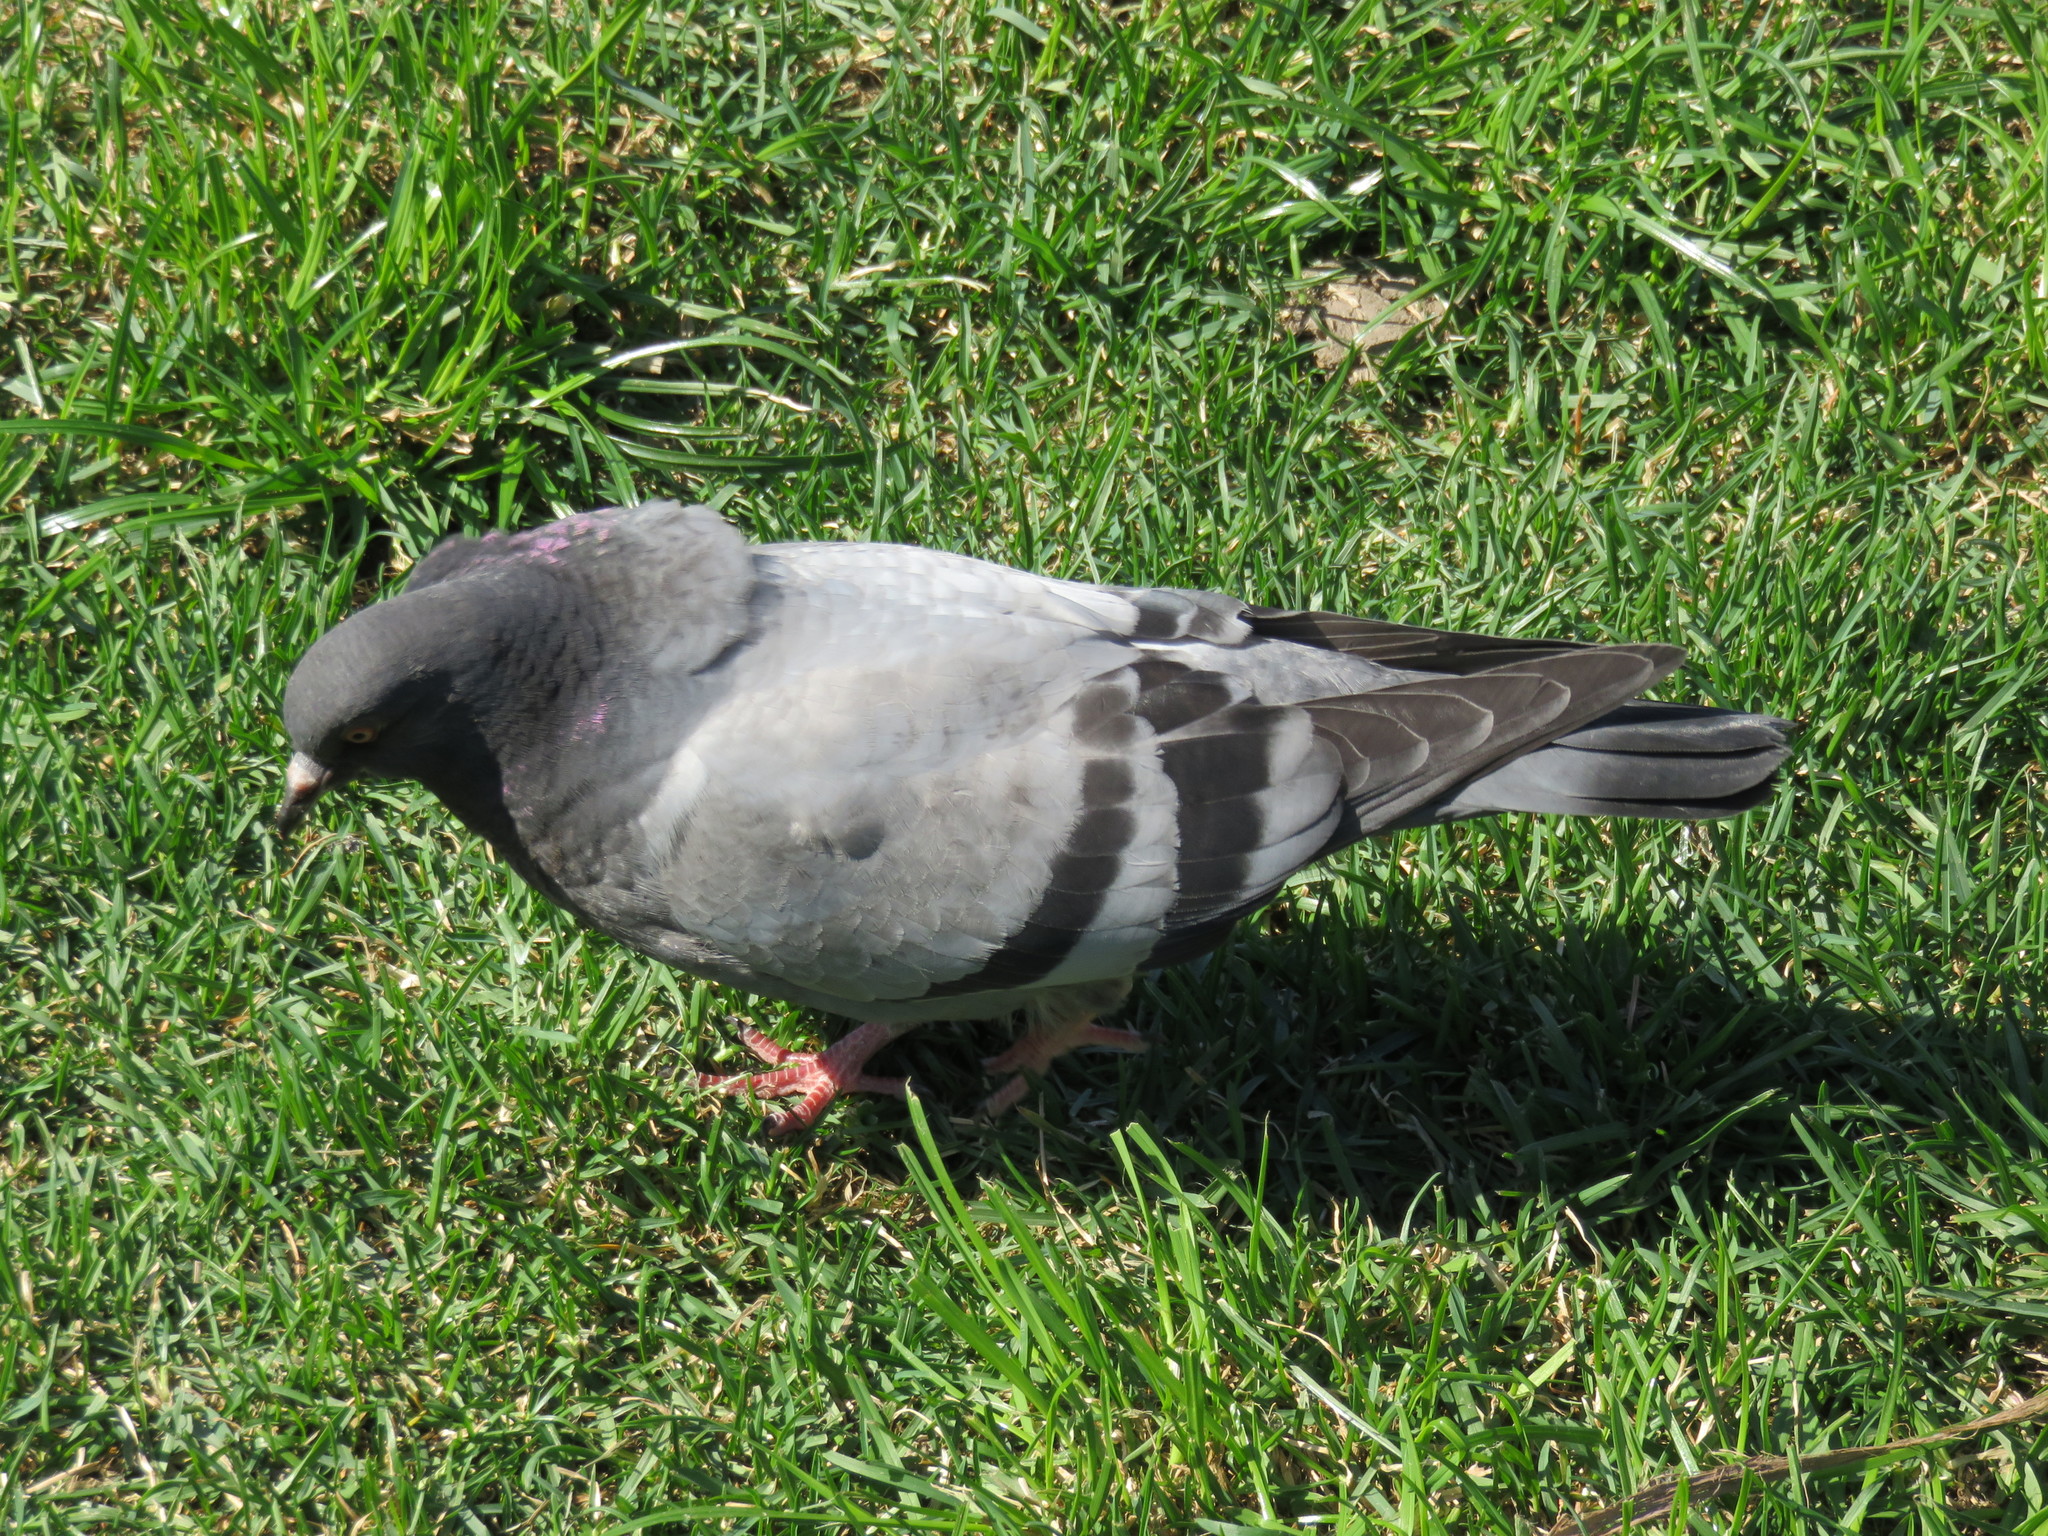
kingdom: Animalia
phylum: Chordata
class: Aves
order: Columbiformes
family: Columbidae
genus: Columba
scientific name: Columba livia
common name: Rock pigeon
